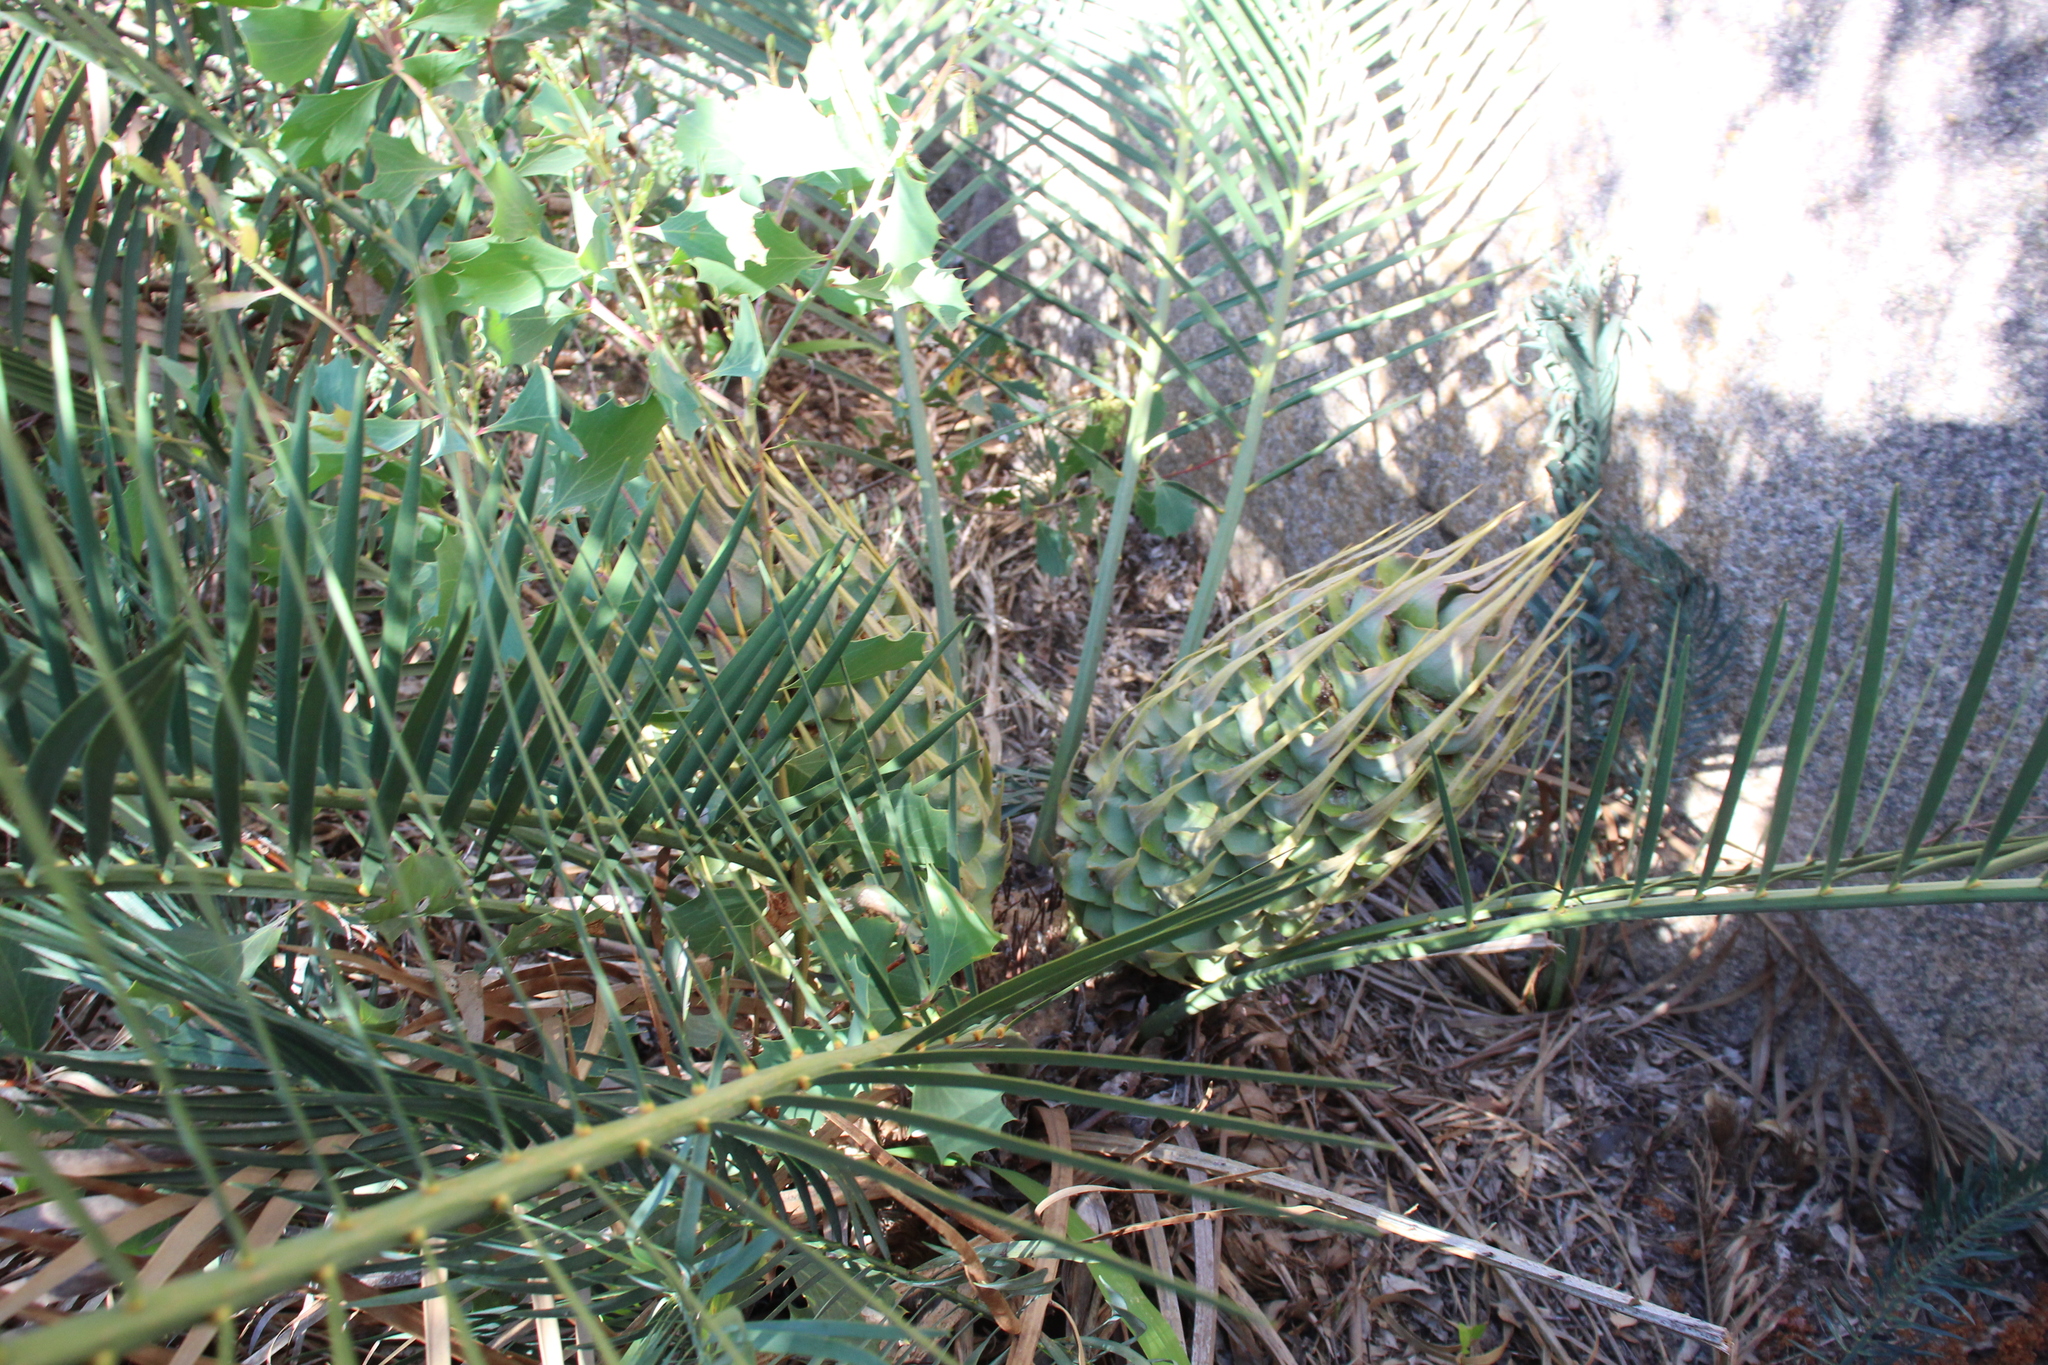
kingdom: Plantae
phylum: Tracheophyta
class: Cycadopsida
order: Cycadales
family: Zamiaceae
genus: Macrozamia
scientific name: Macrozamia riedlei
